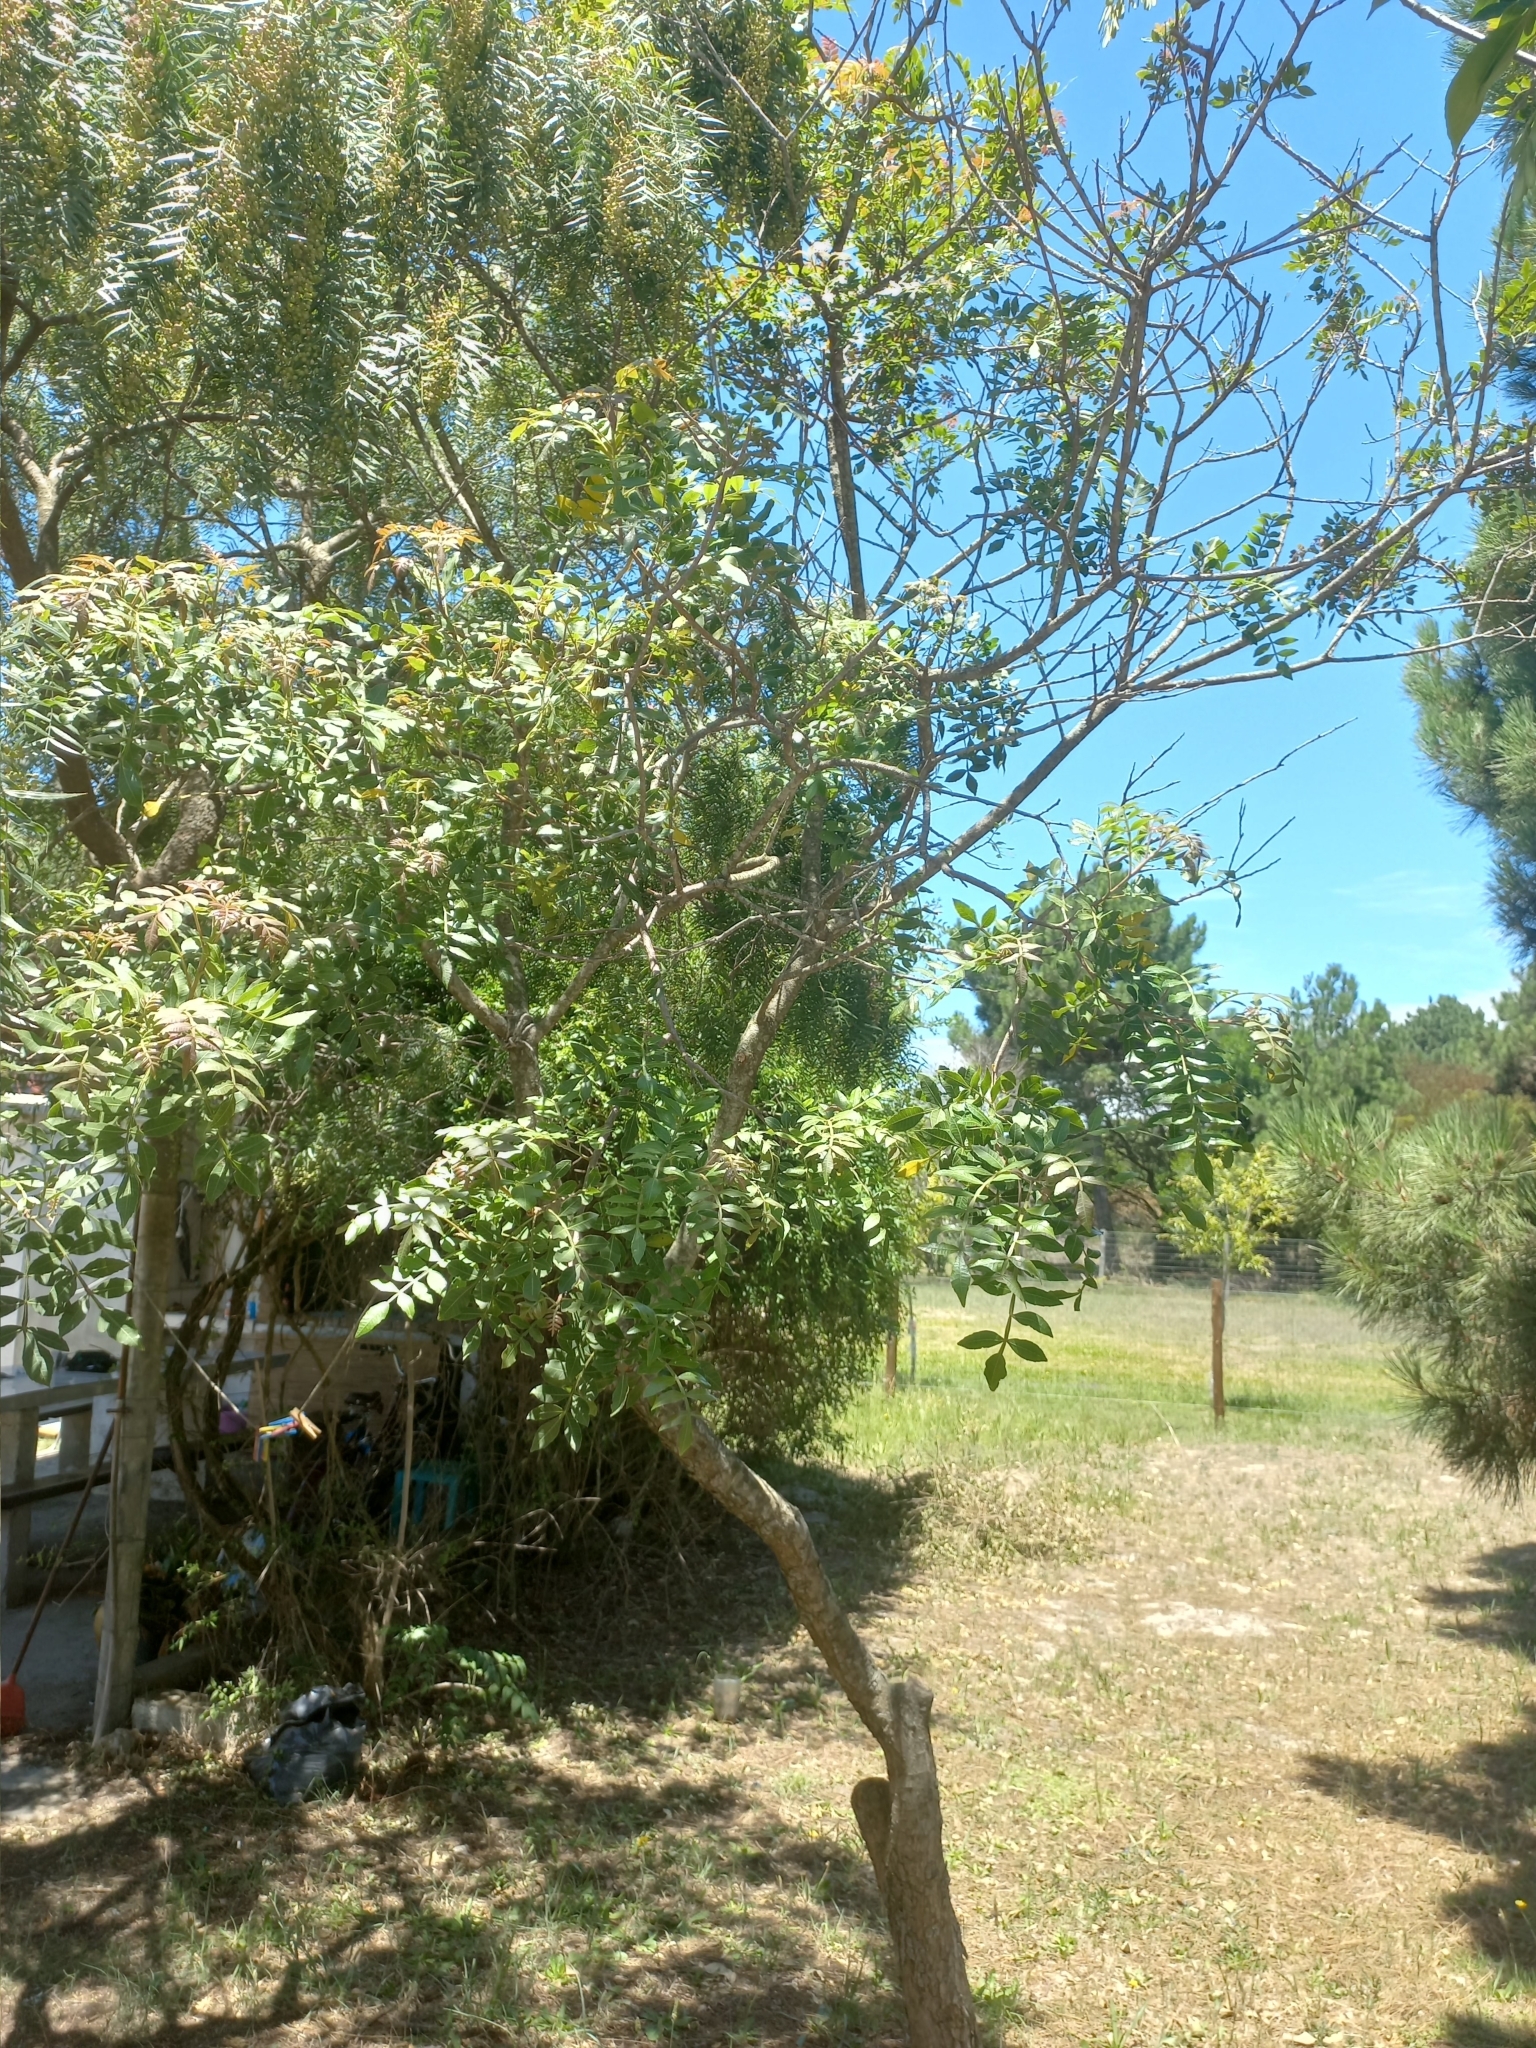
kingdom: Plantae
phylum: Tracheophyta
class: Magnoliopsida
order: Sapindales
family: Anacardiaceae
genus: Schinus
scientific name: Schinus terebinthifolia
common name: Brazilian peppertree
